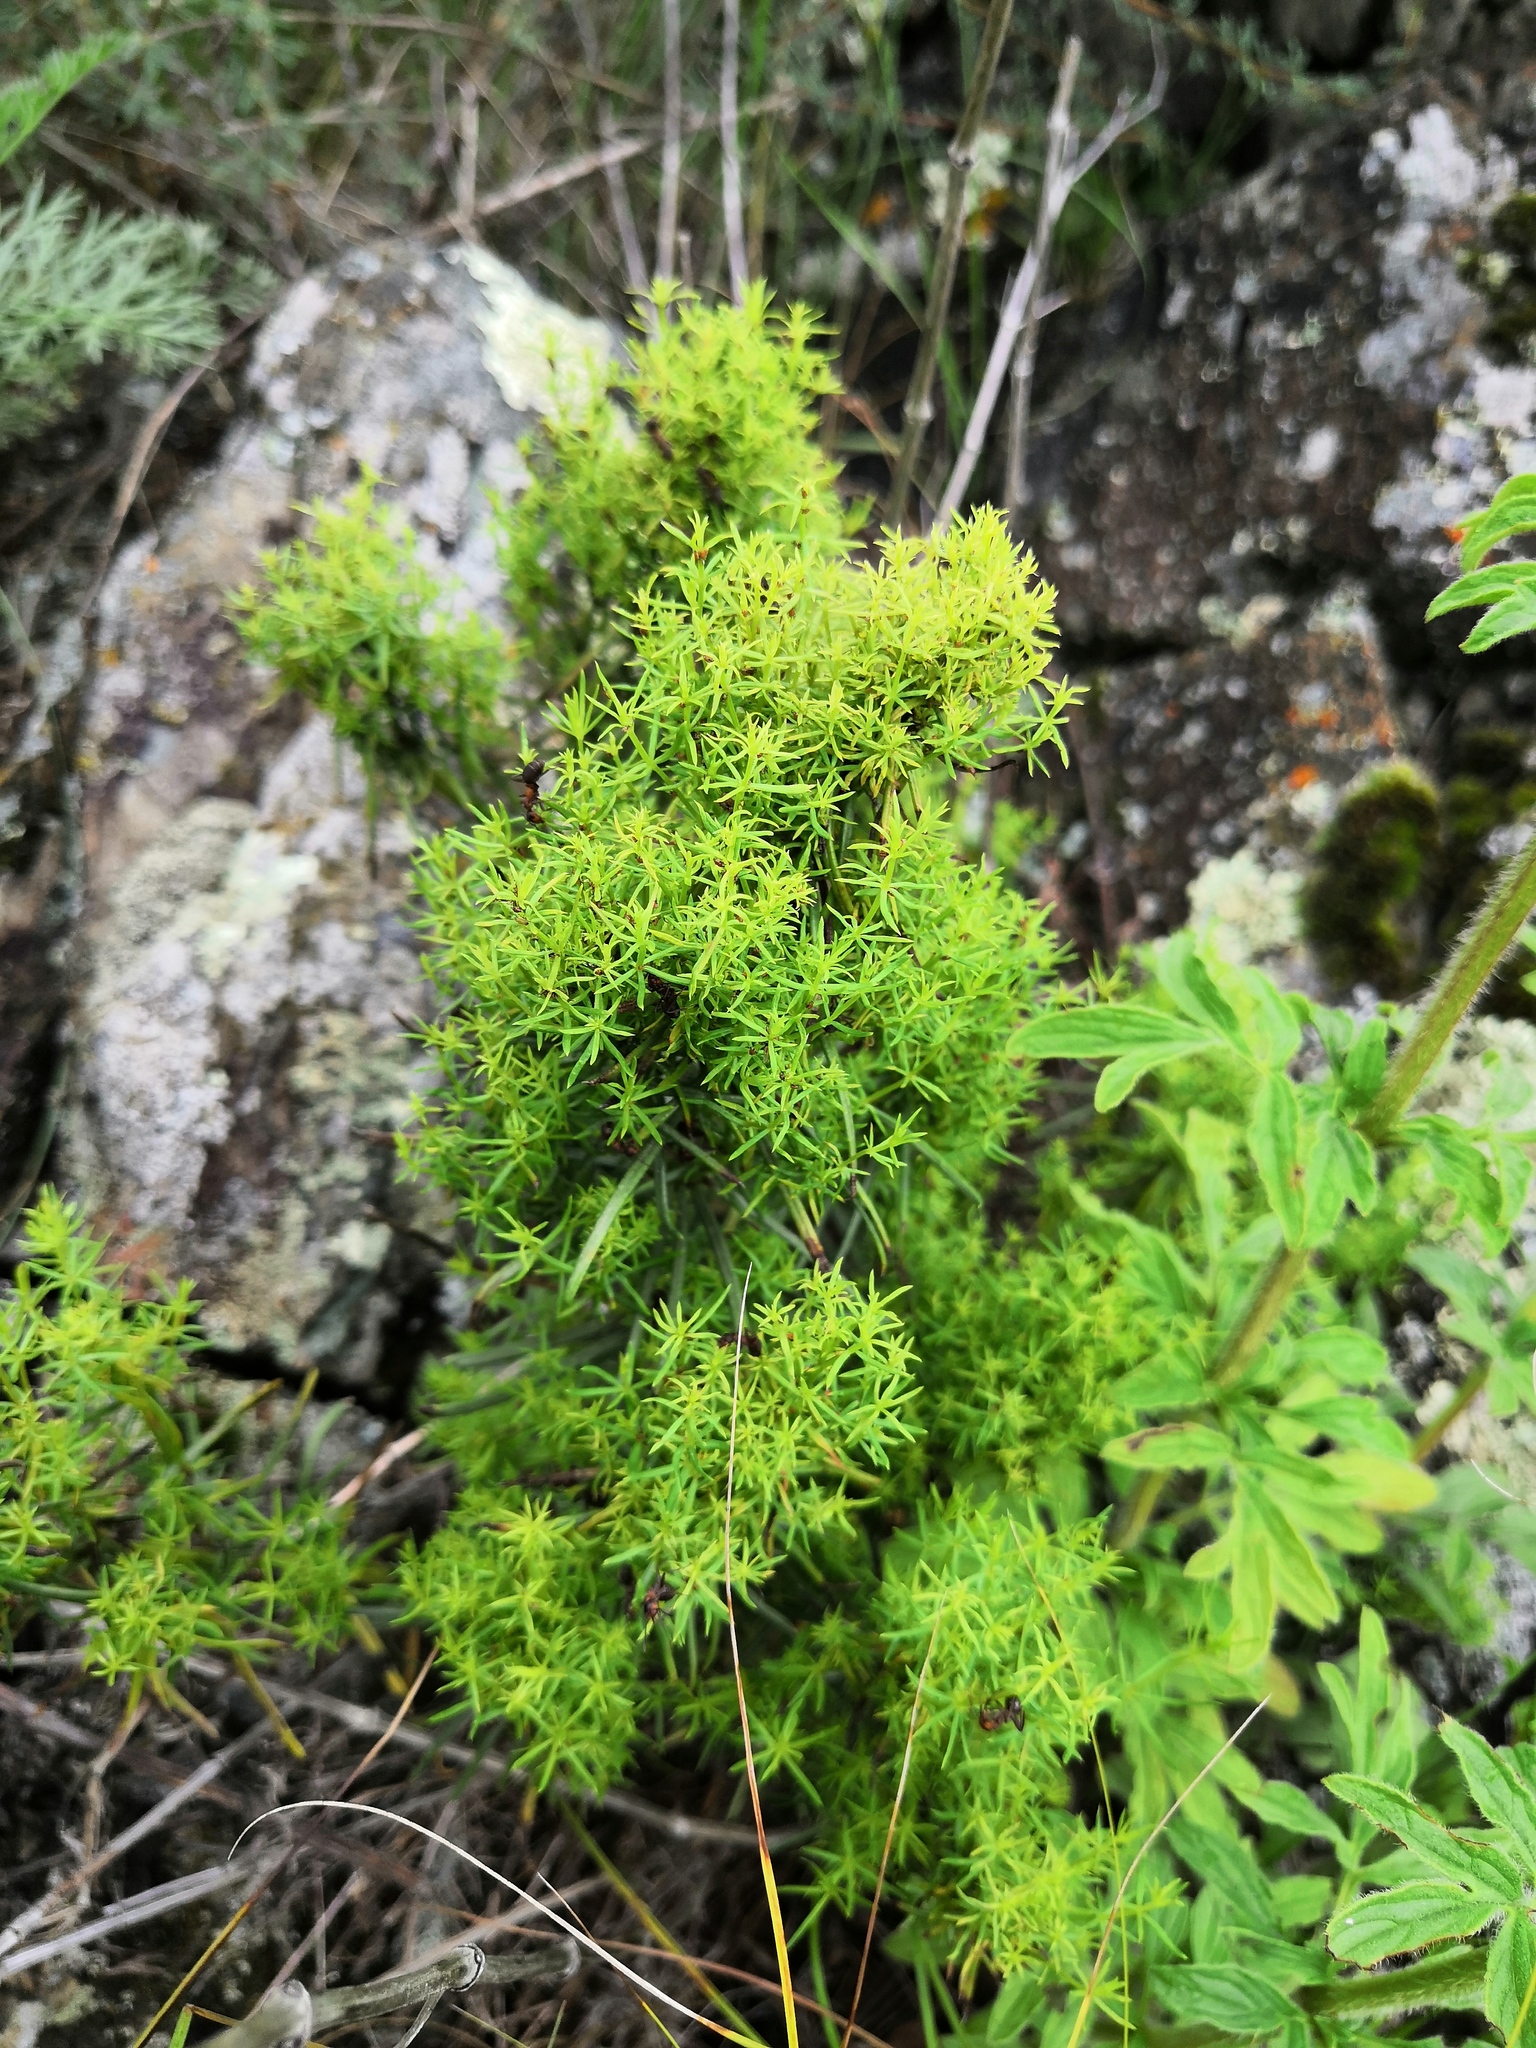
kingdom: Plantae
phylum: Tracheophyta
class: Magnoliopsida
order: Gentianales
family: Rubiaceae
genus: Galium
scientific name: Galium verum
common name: Lady's bedstraw
